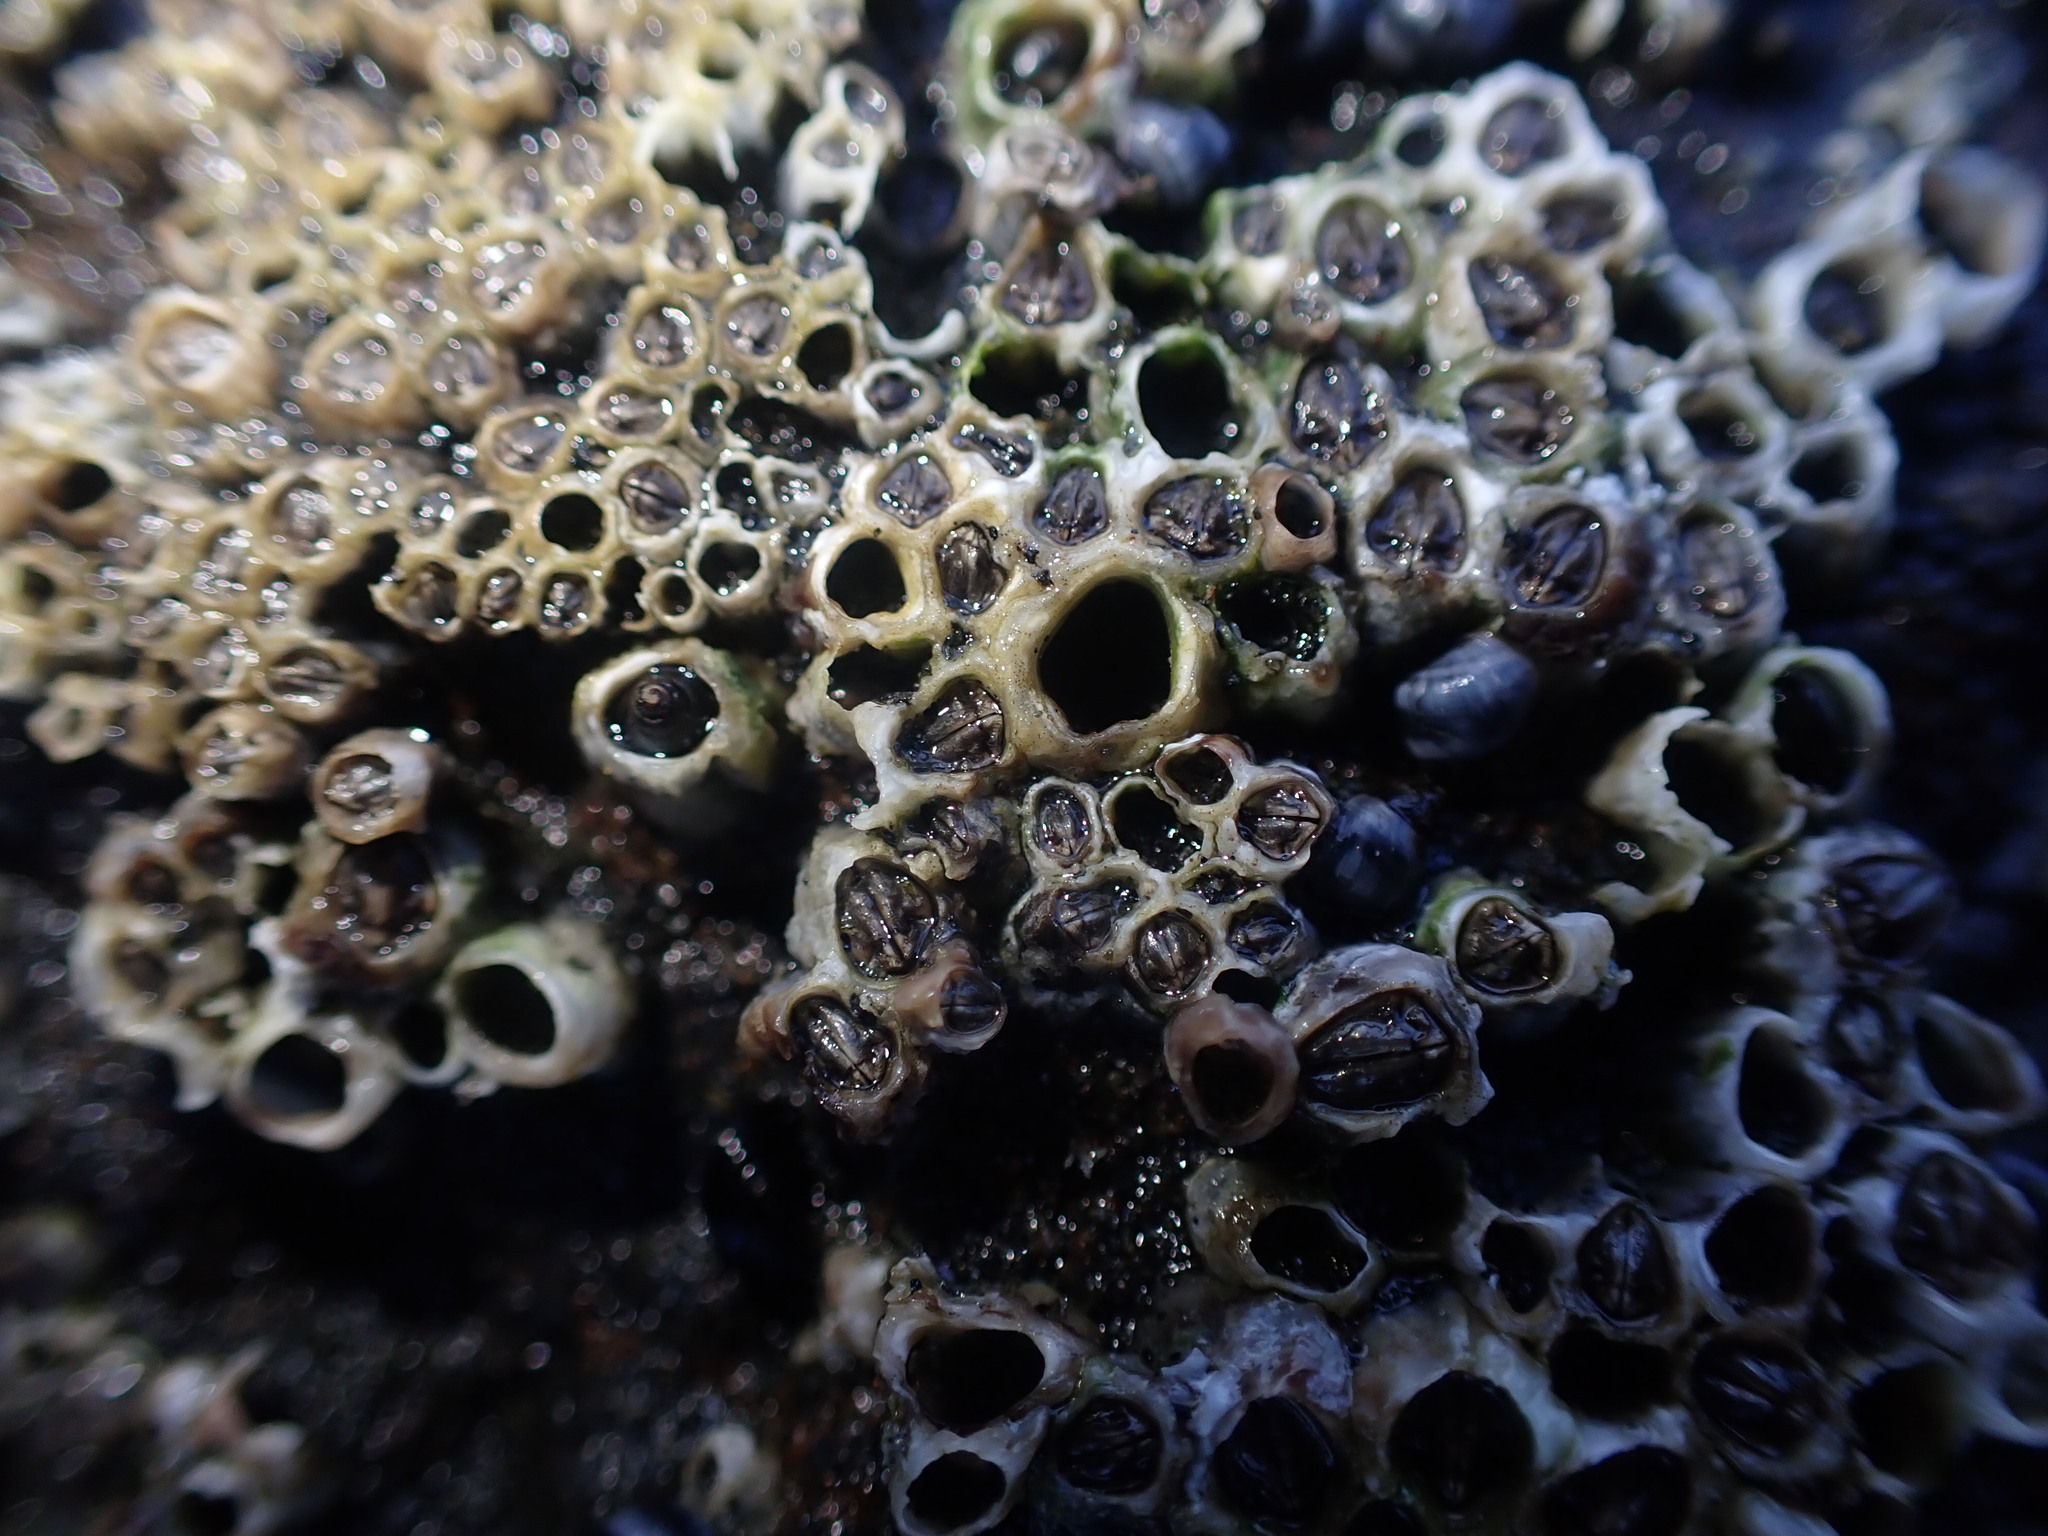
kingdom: Animalia
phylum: Arthropoda
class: Maxillopoda
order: Sessilia
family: Chthamalidae
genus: Chamaesipho
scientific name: Chamaesipho columna
